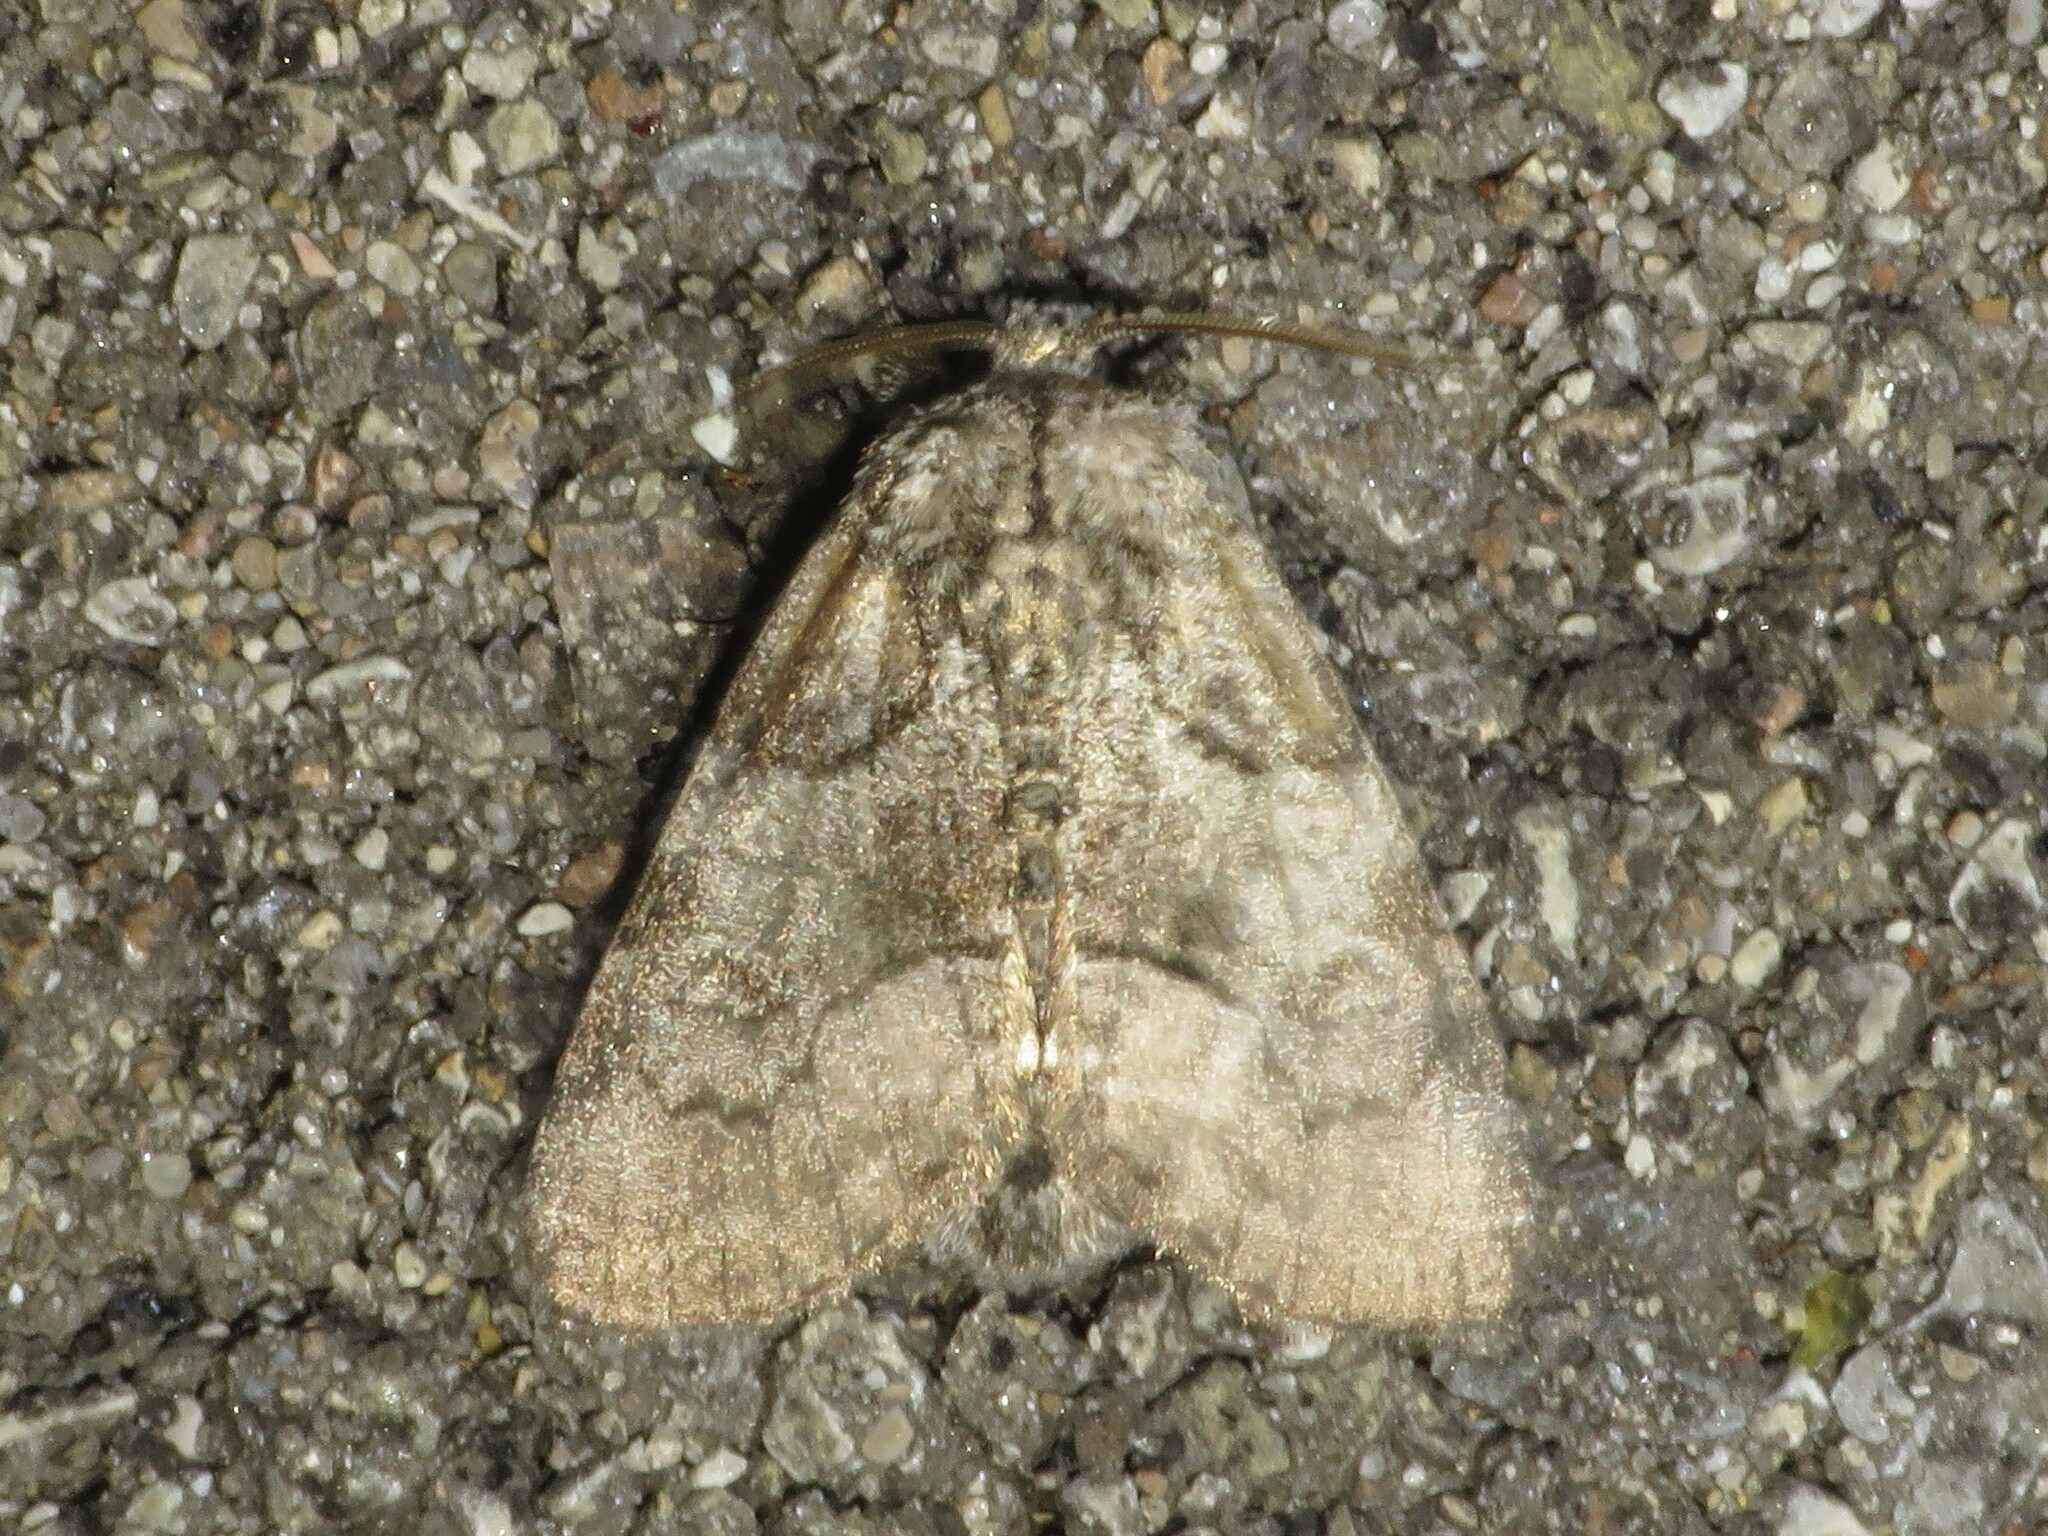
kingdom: Animalia
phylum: Arthropoda
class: Insecta
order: Lepidoptera
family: Noctuidae
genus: Raphia
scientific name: Raphia frater
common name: Brother
